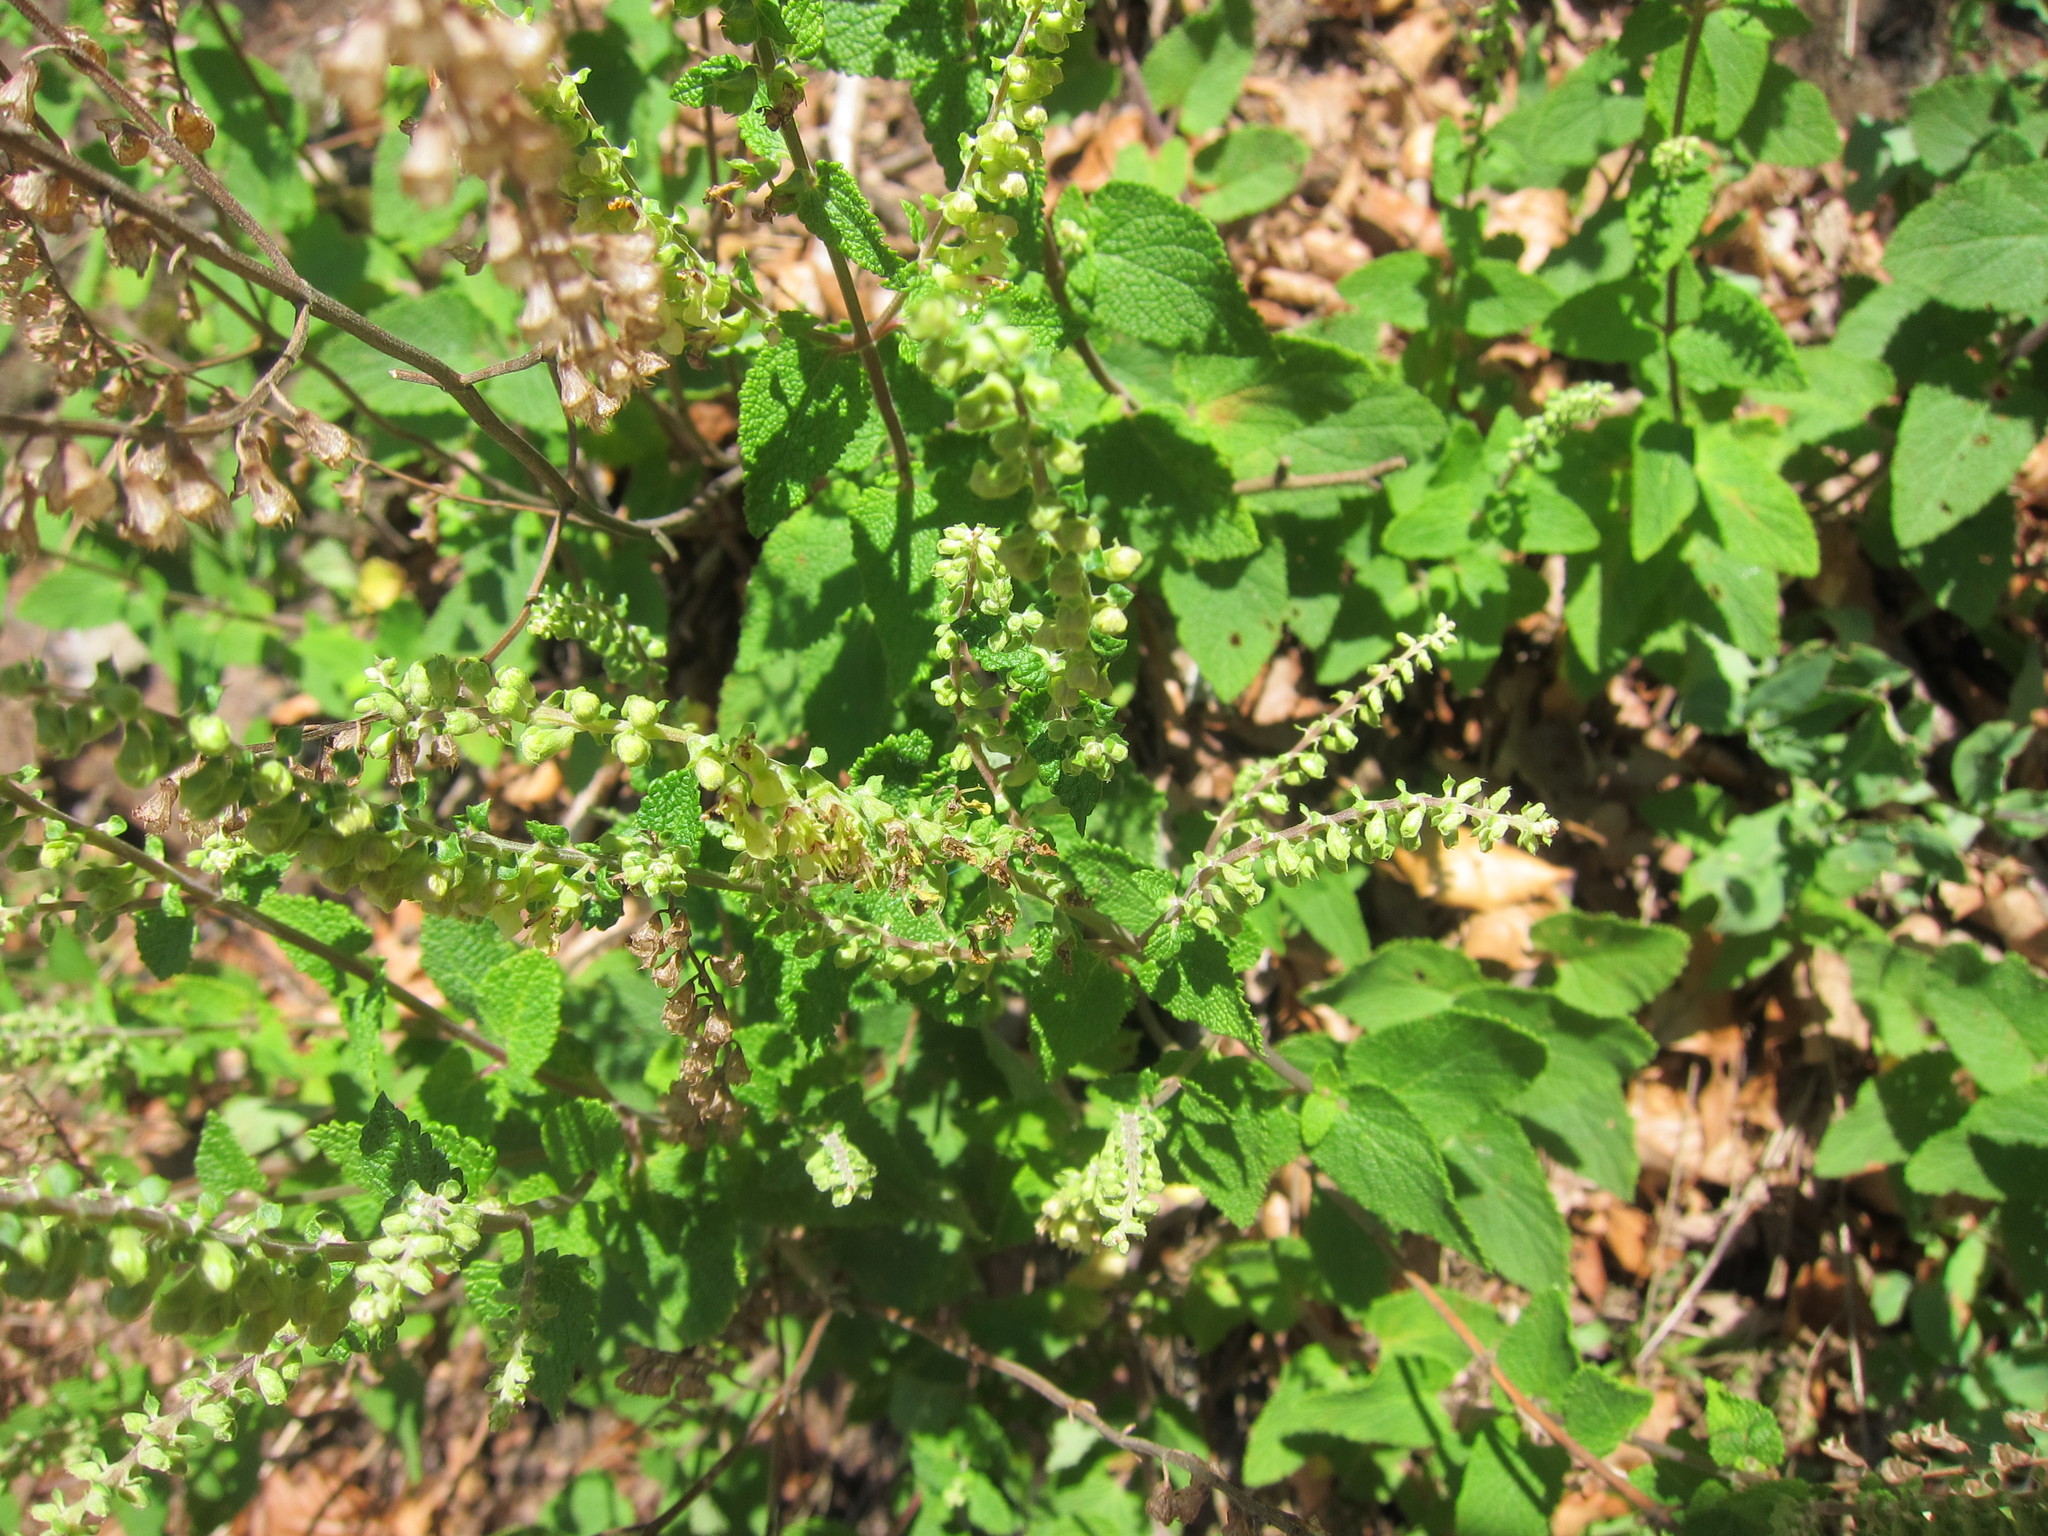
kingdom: Plantae
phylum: Tracheophyta
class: Magnoliopsida
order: Lamiales
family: Lamiaceae
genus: Teucrium
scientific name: Teucrium scorodonia
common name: Woodland germander
